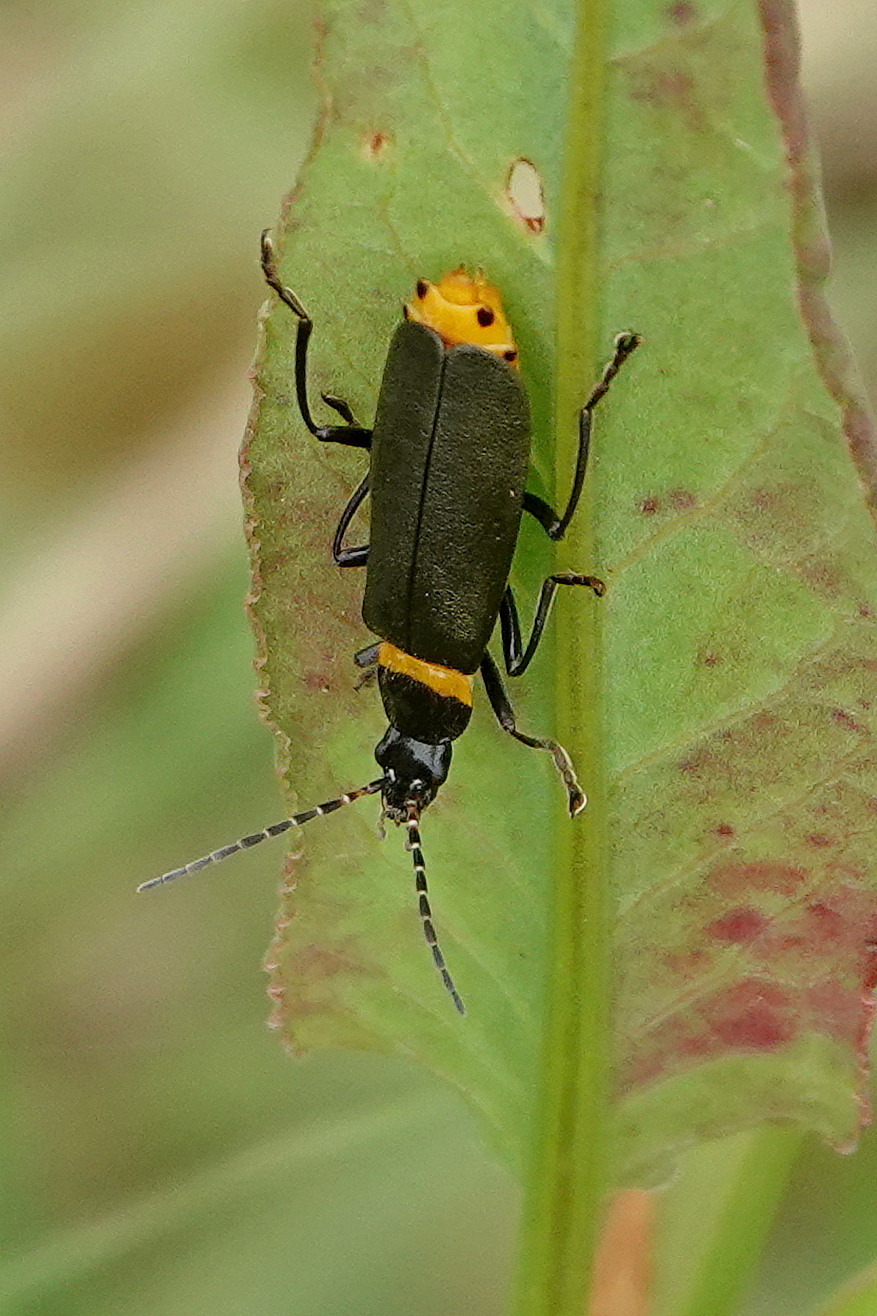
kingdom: Animalia
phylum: Arthropoda
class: Insecta
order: Coleoptera
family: Cantharidae
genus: Chauliognathus
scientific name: Chauliognathus
